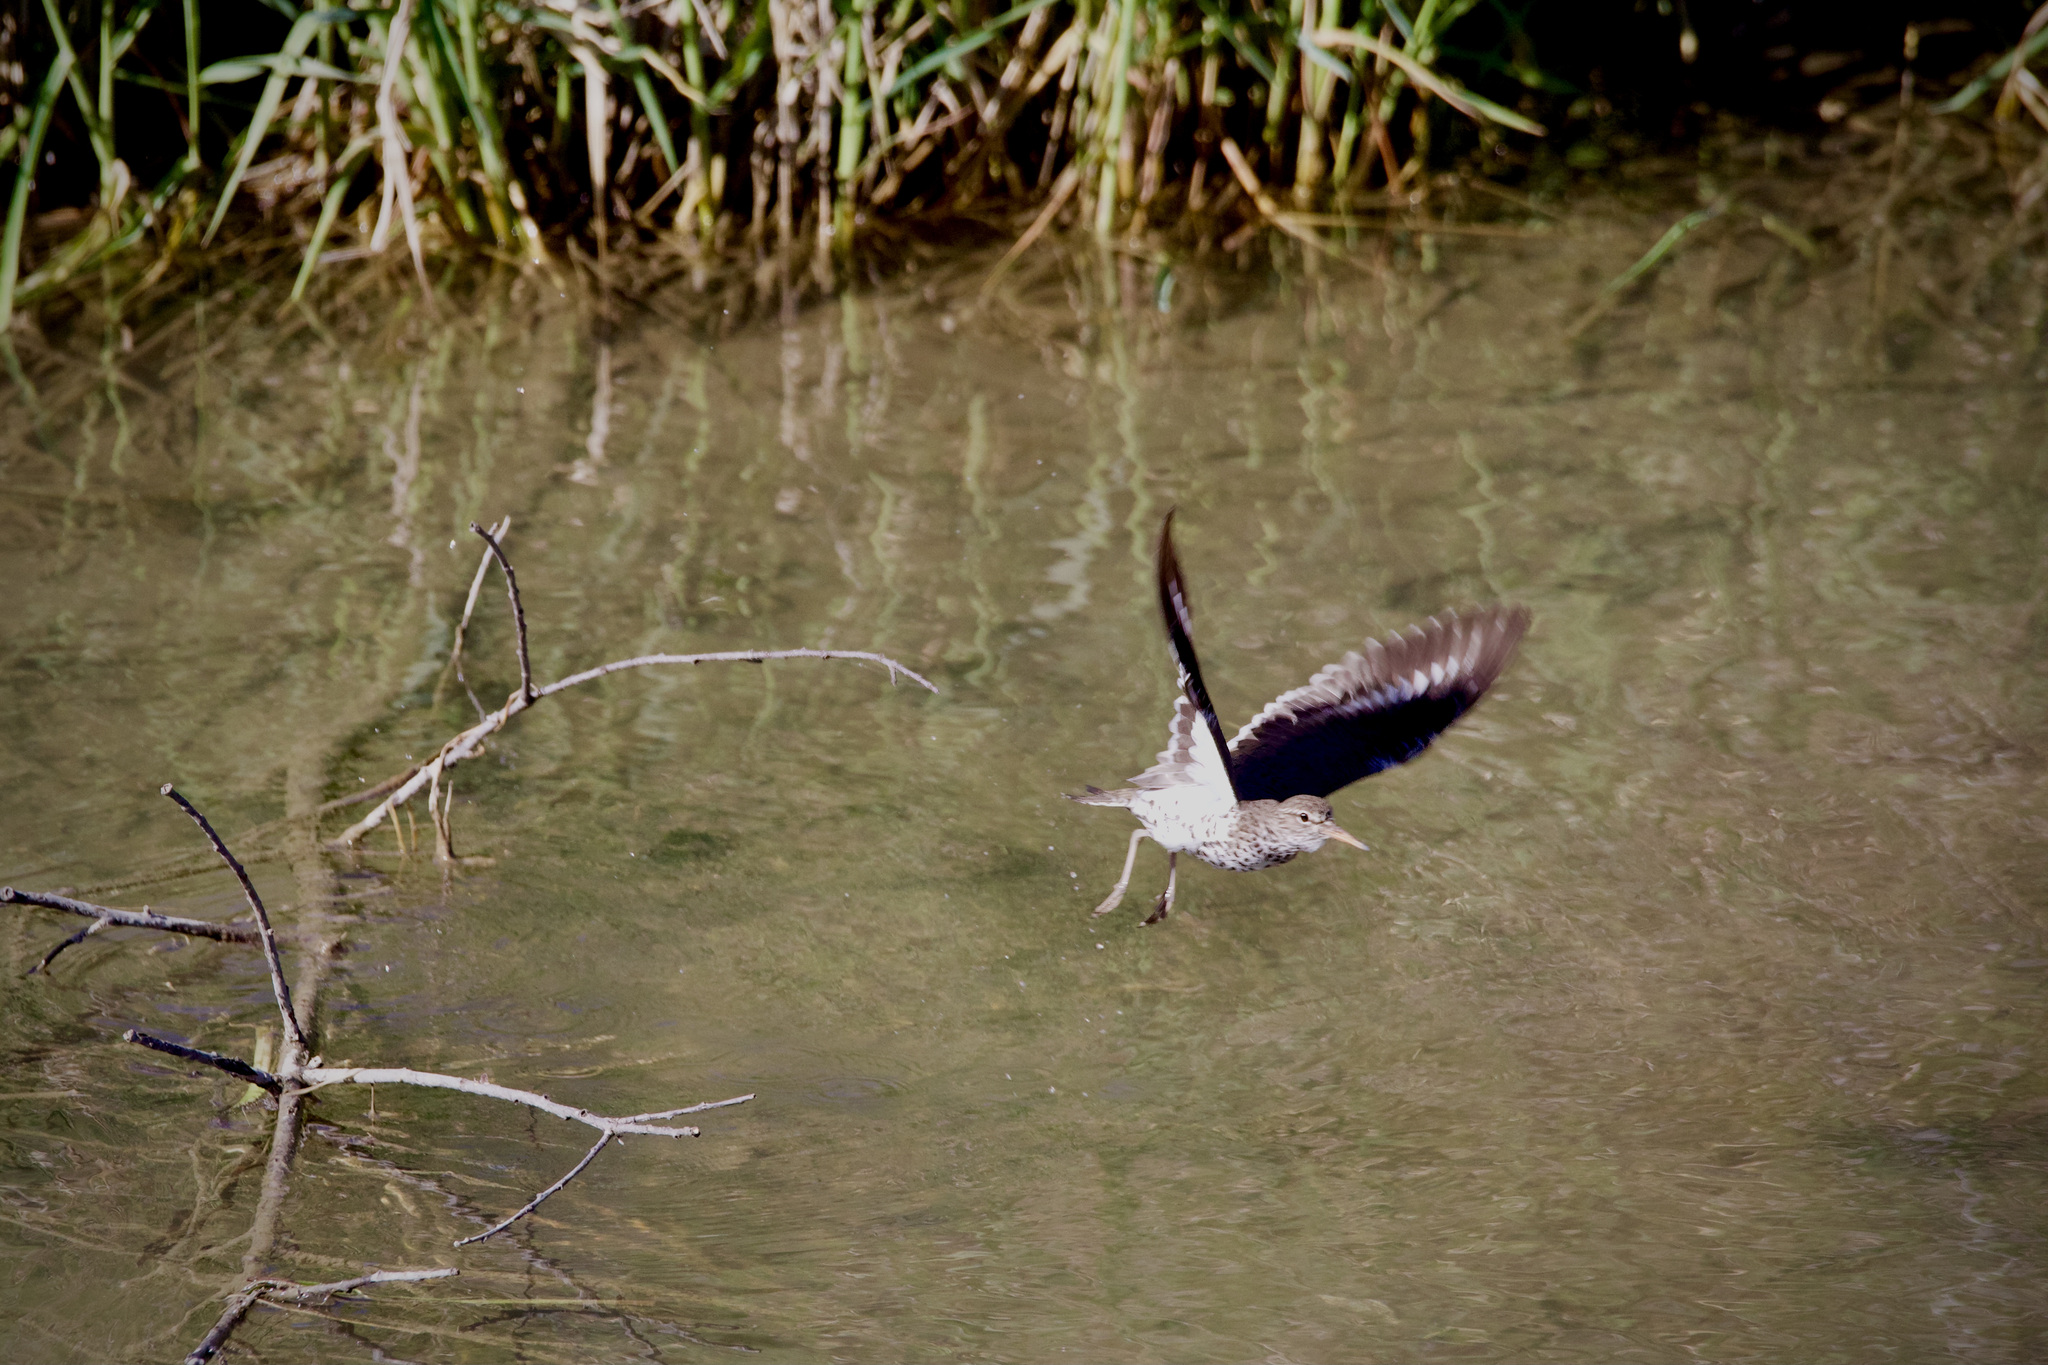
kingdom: Animalia
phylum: Chordata
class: Aves
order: Charadriiformes
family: Scolopacidae
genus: Actitis
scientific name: Actitis macularius
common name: Spotted sandpiper
